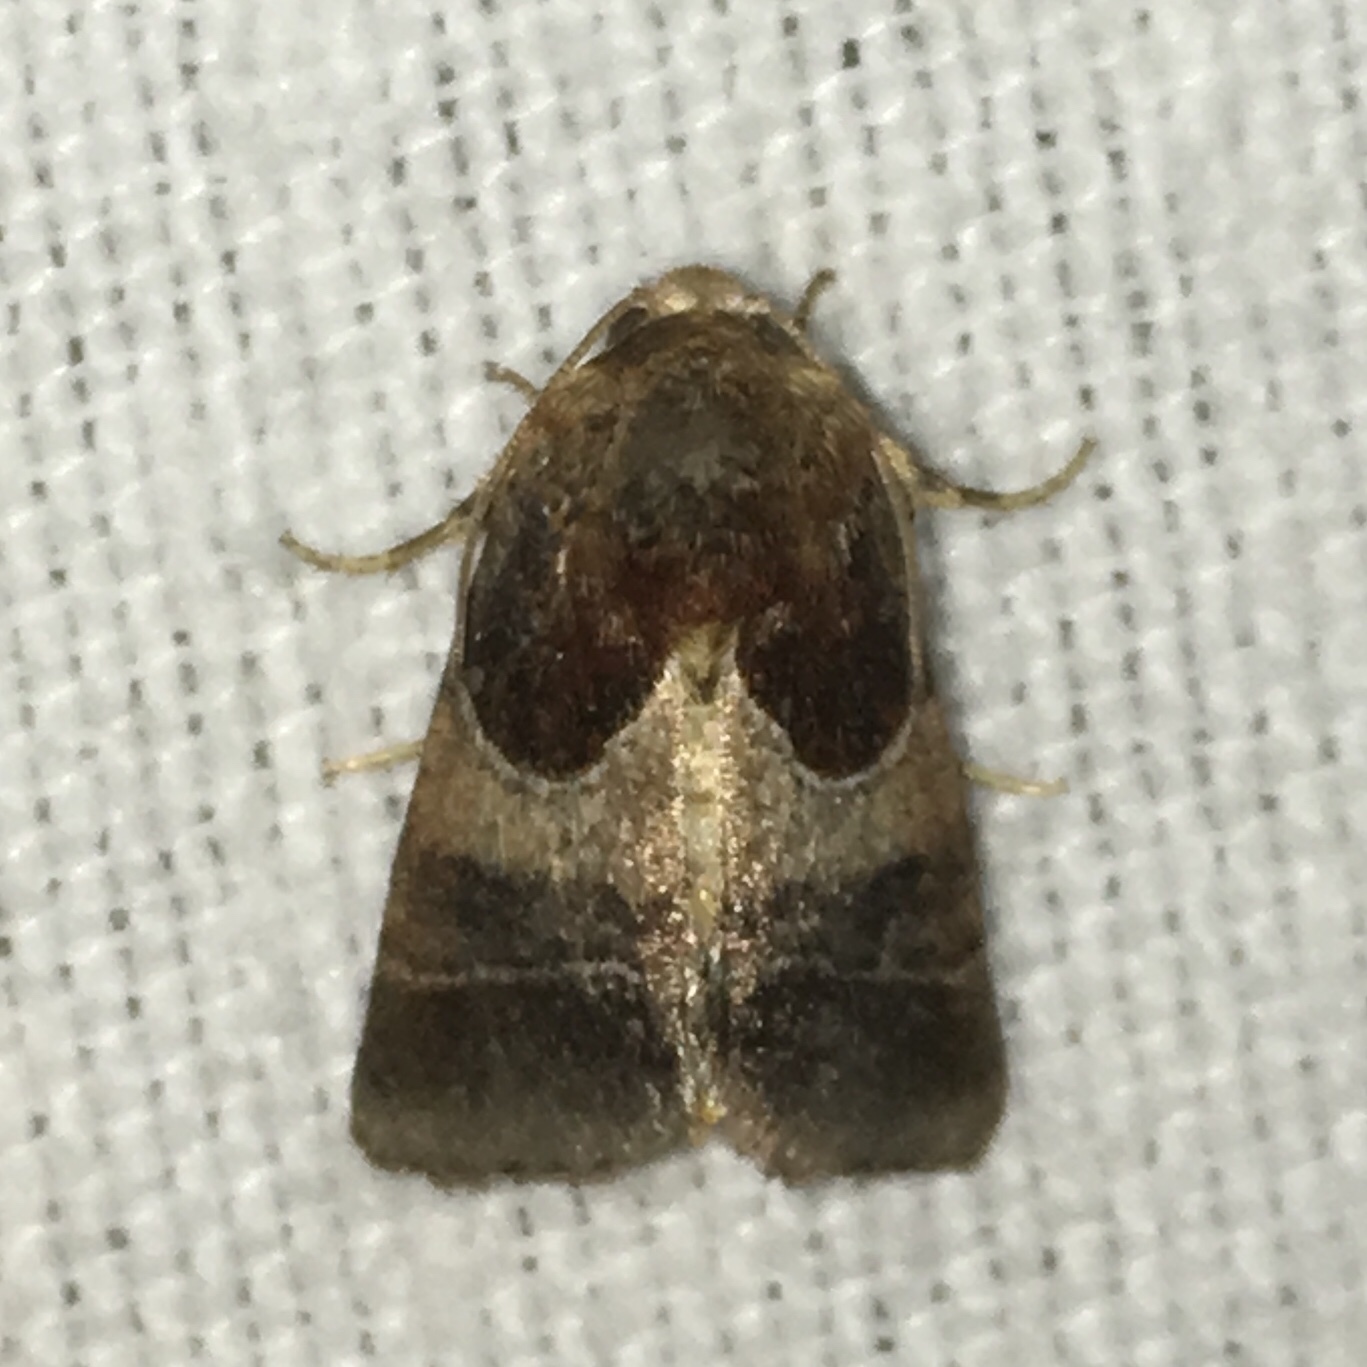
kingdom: Animalia
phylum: Arthropoda
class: Insecta
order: Lepidoptera
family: Noctuidae
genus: Schinia
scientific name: Schinia arcigera
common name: Arcigera flower moth
